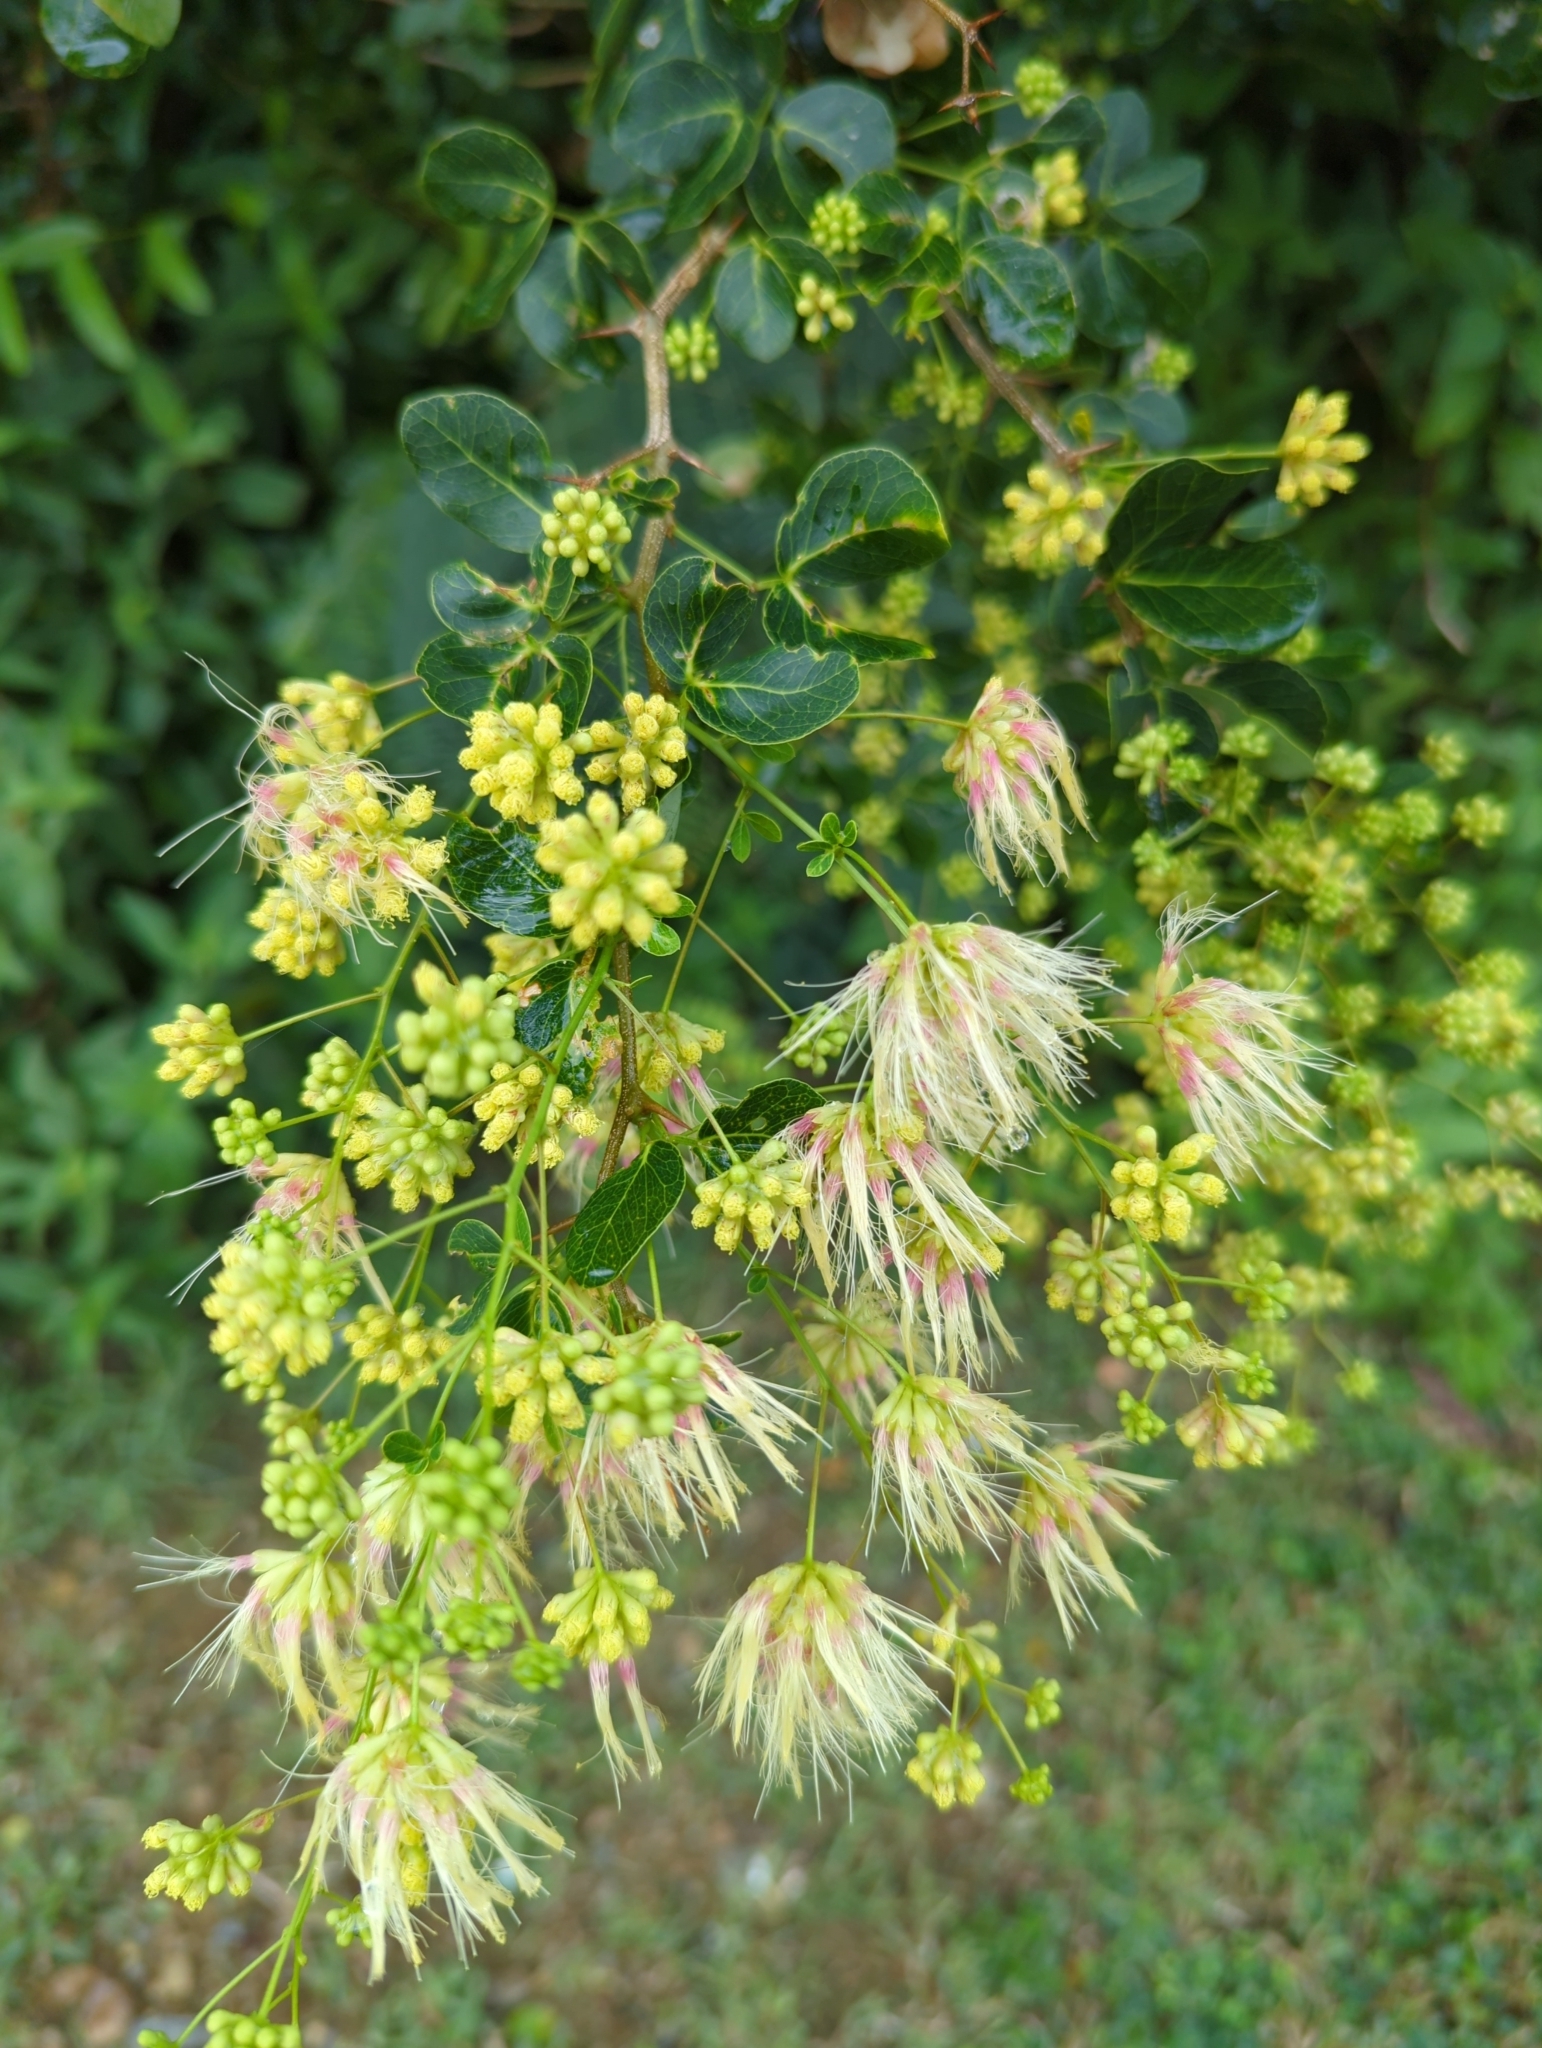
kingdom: Plantae
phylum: Tracheophyta
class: Magnoliopsida
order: Fabales
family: Fabaceae
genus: Pithecellobium
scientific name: Pithecellobium unguis-cati
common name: Cat's-claw
